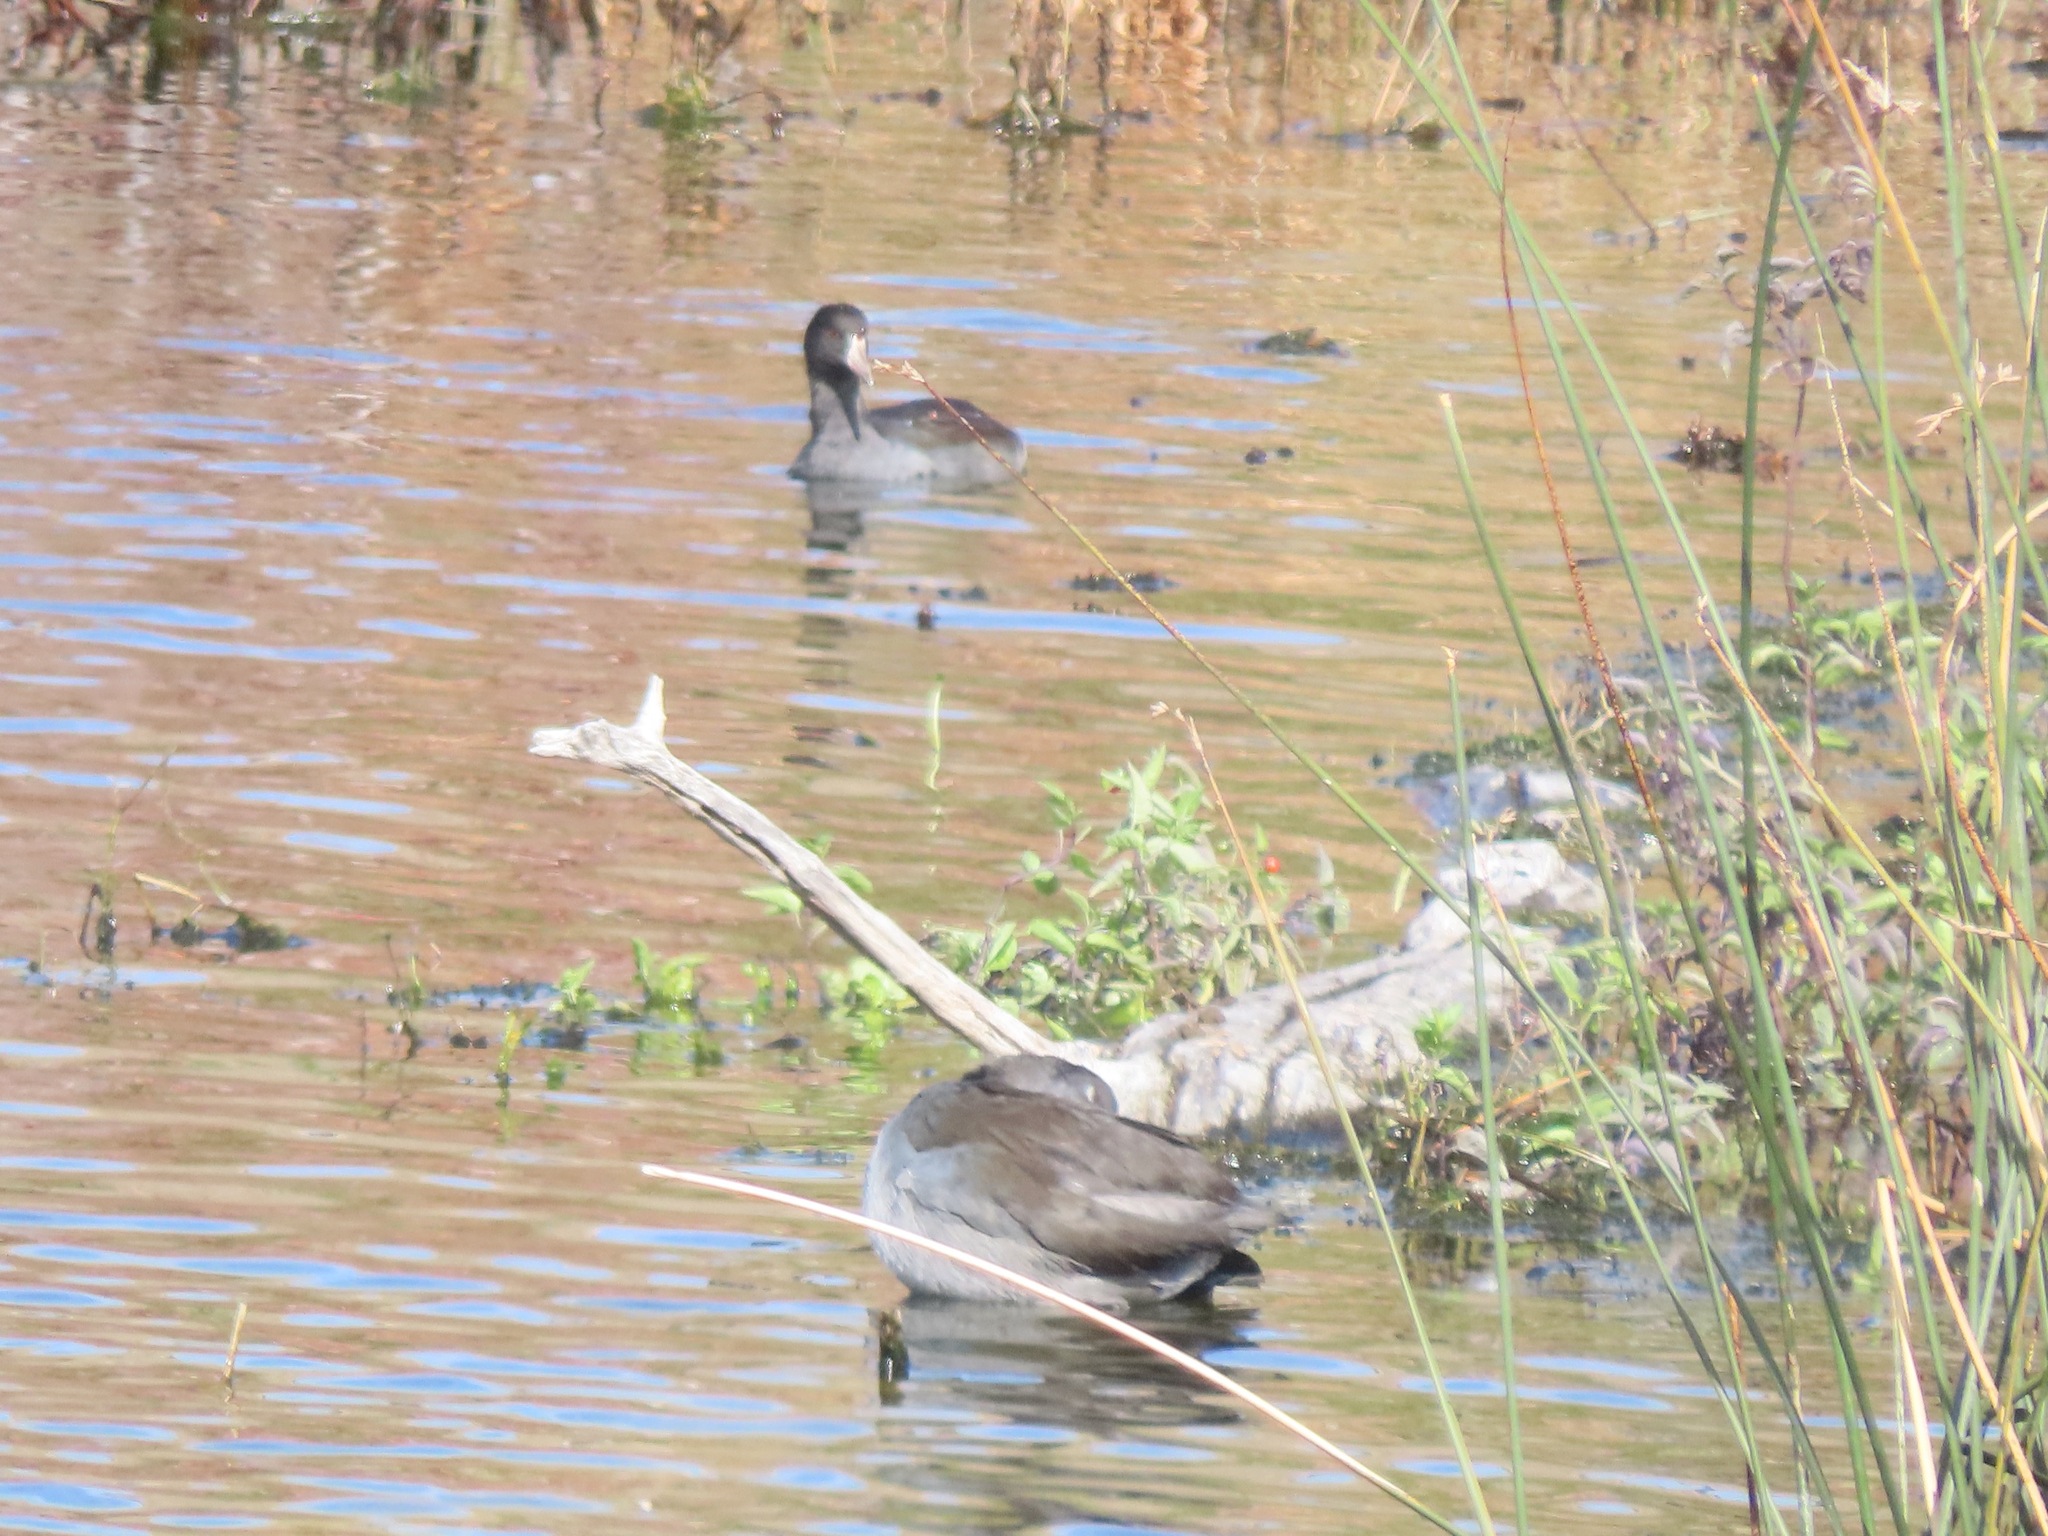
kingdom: Animalia
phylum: Chordata
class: Aves
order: Gruiformes
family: Rallidae
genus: Fulica
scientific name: Fulica americana
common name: American coot
